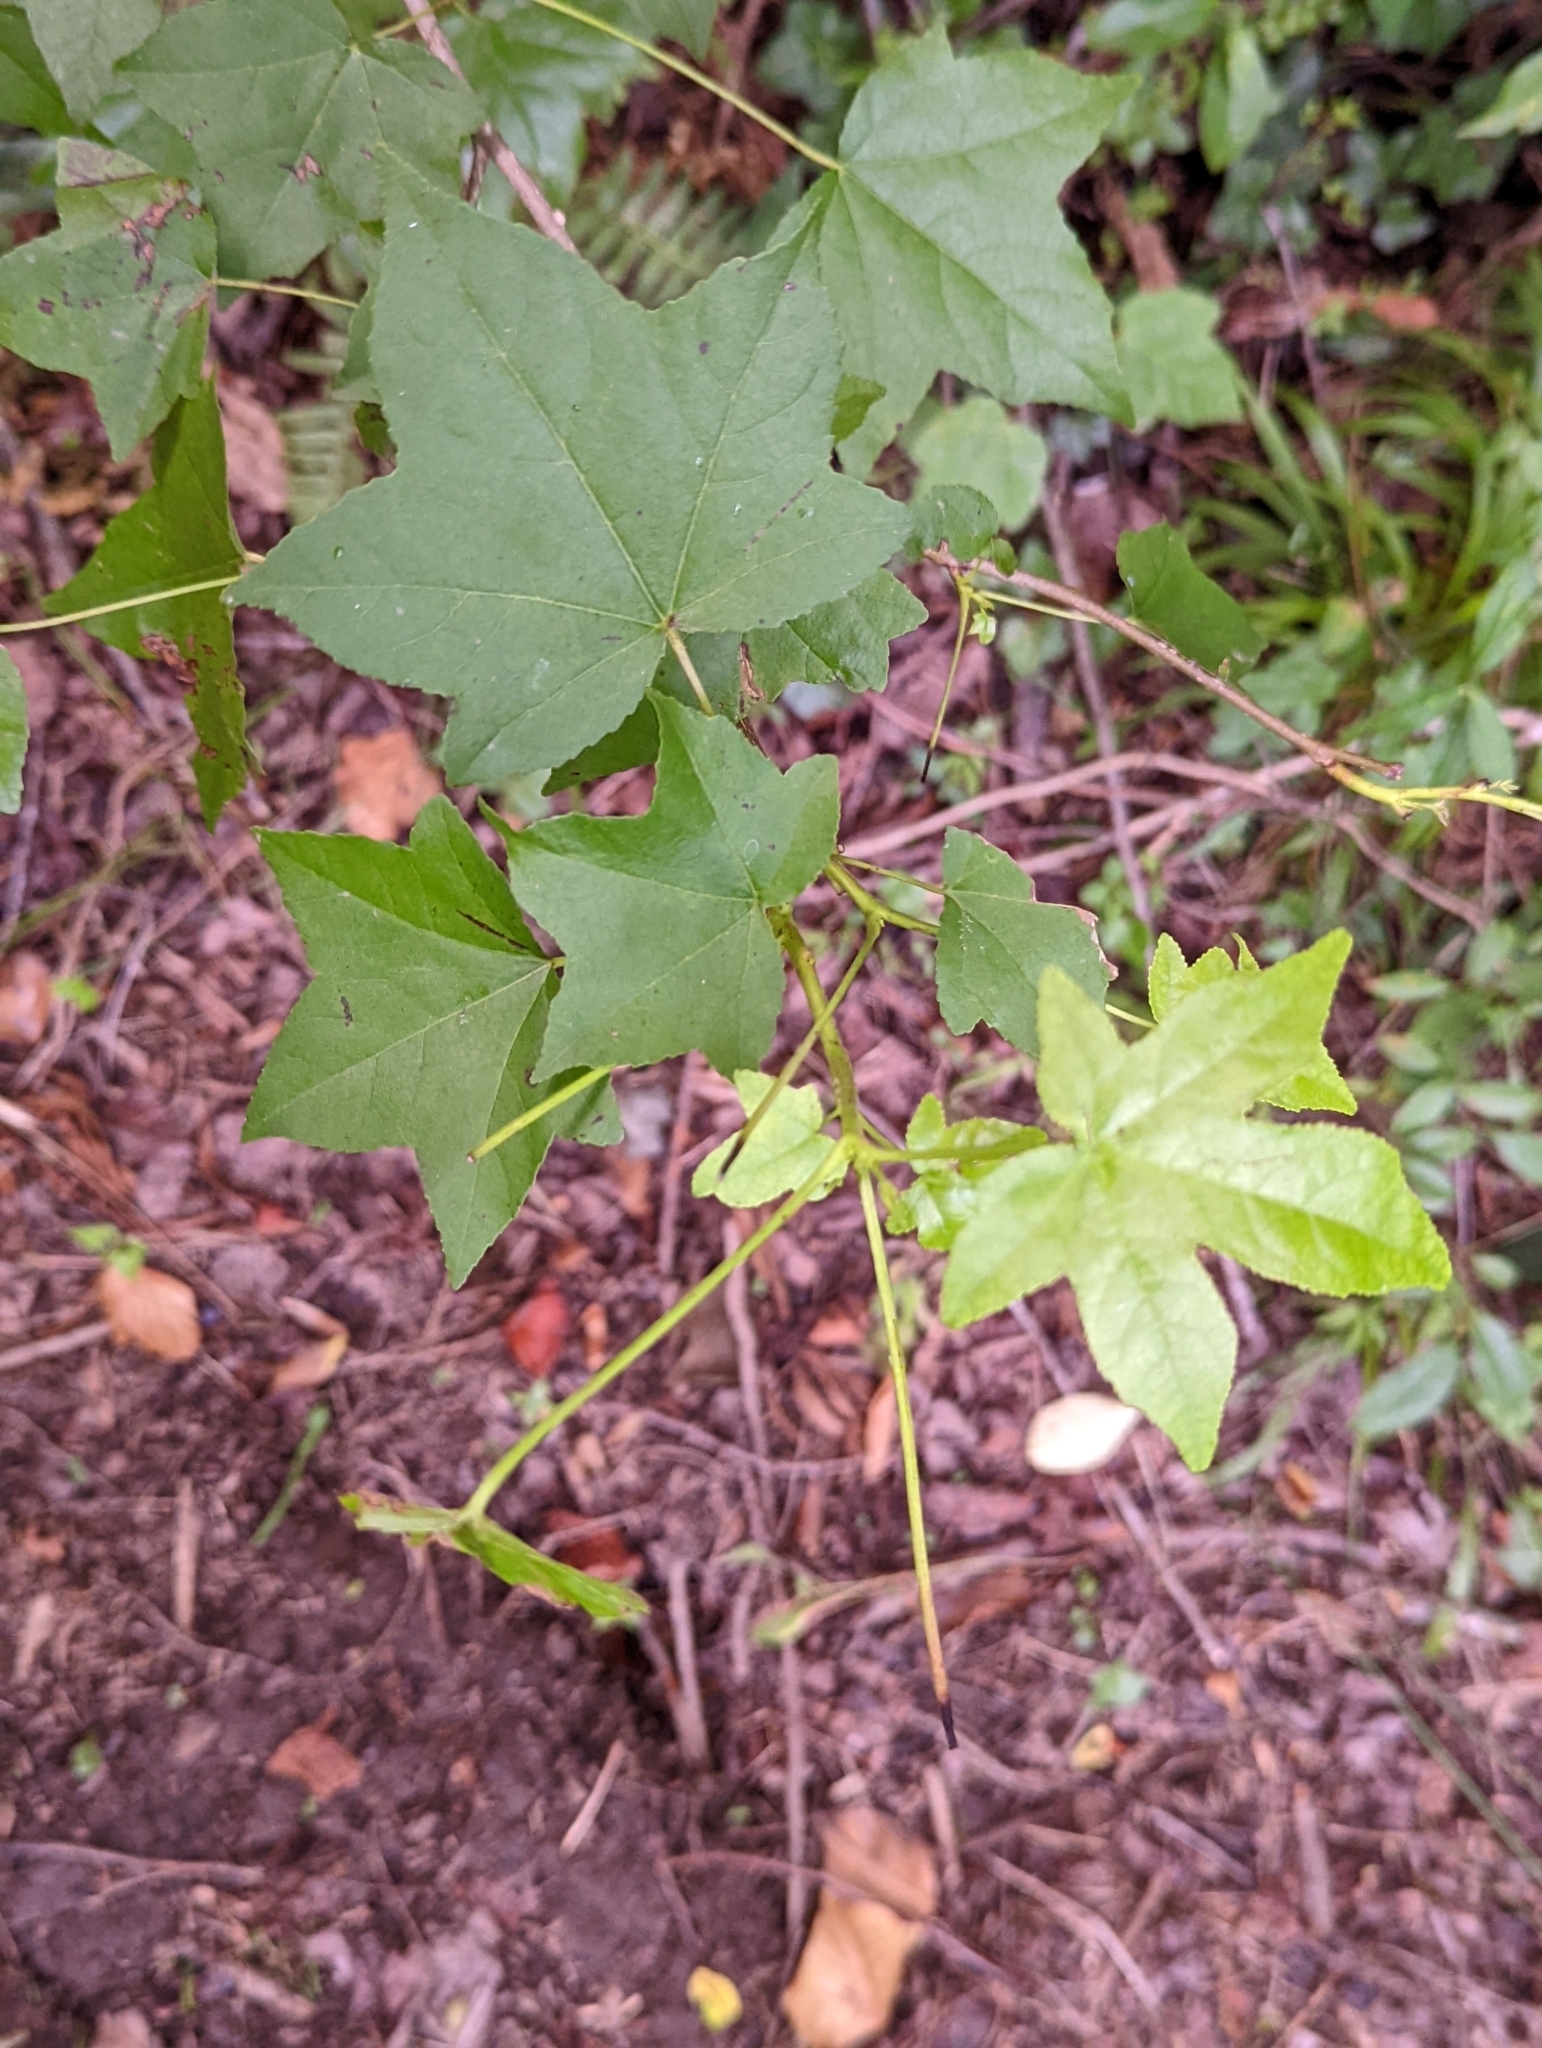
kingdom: Plantae
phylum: Tracheophyta
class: Magnoliopsida
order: Saxifragales
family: Altingiaceae
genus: Liquidambar
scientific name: Liquidambar styraciflua
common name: Sweet gum
